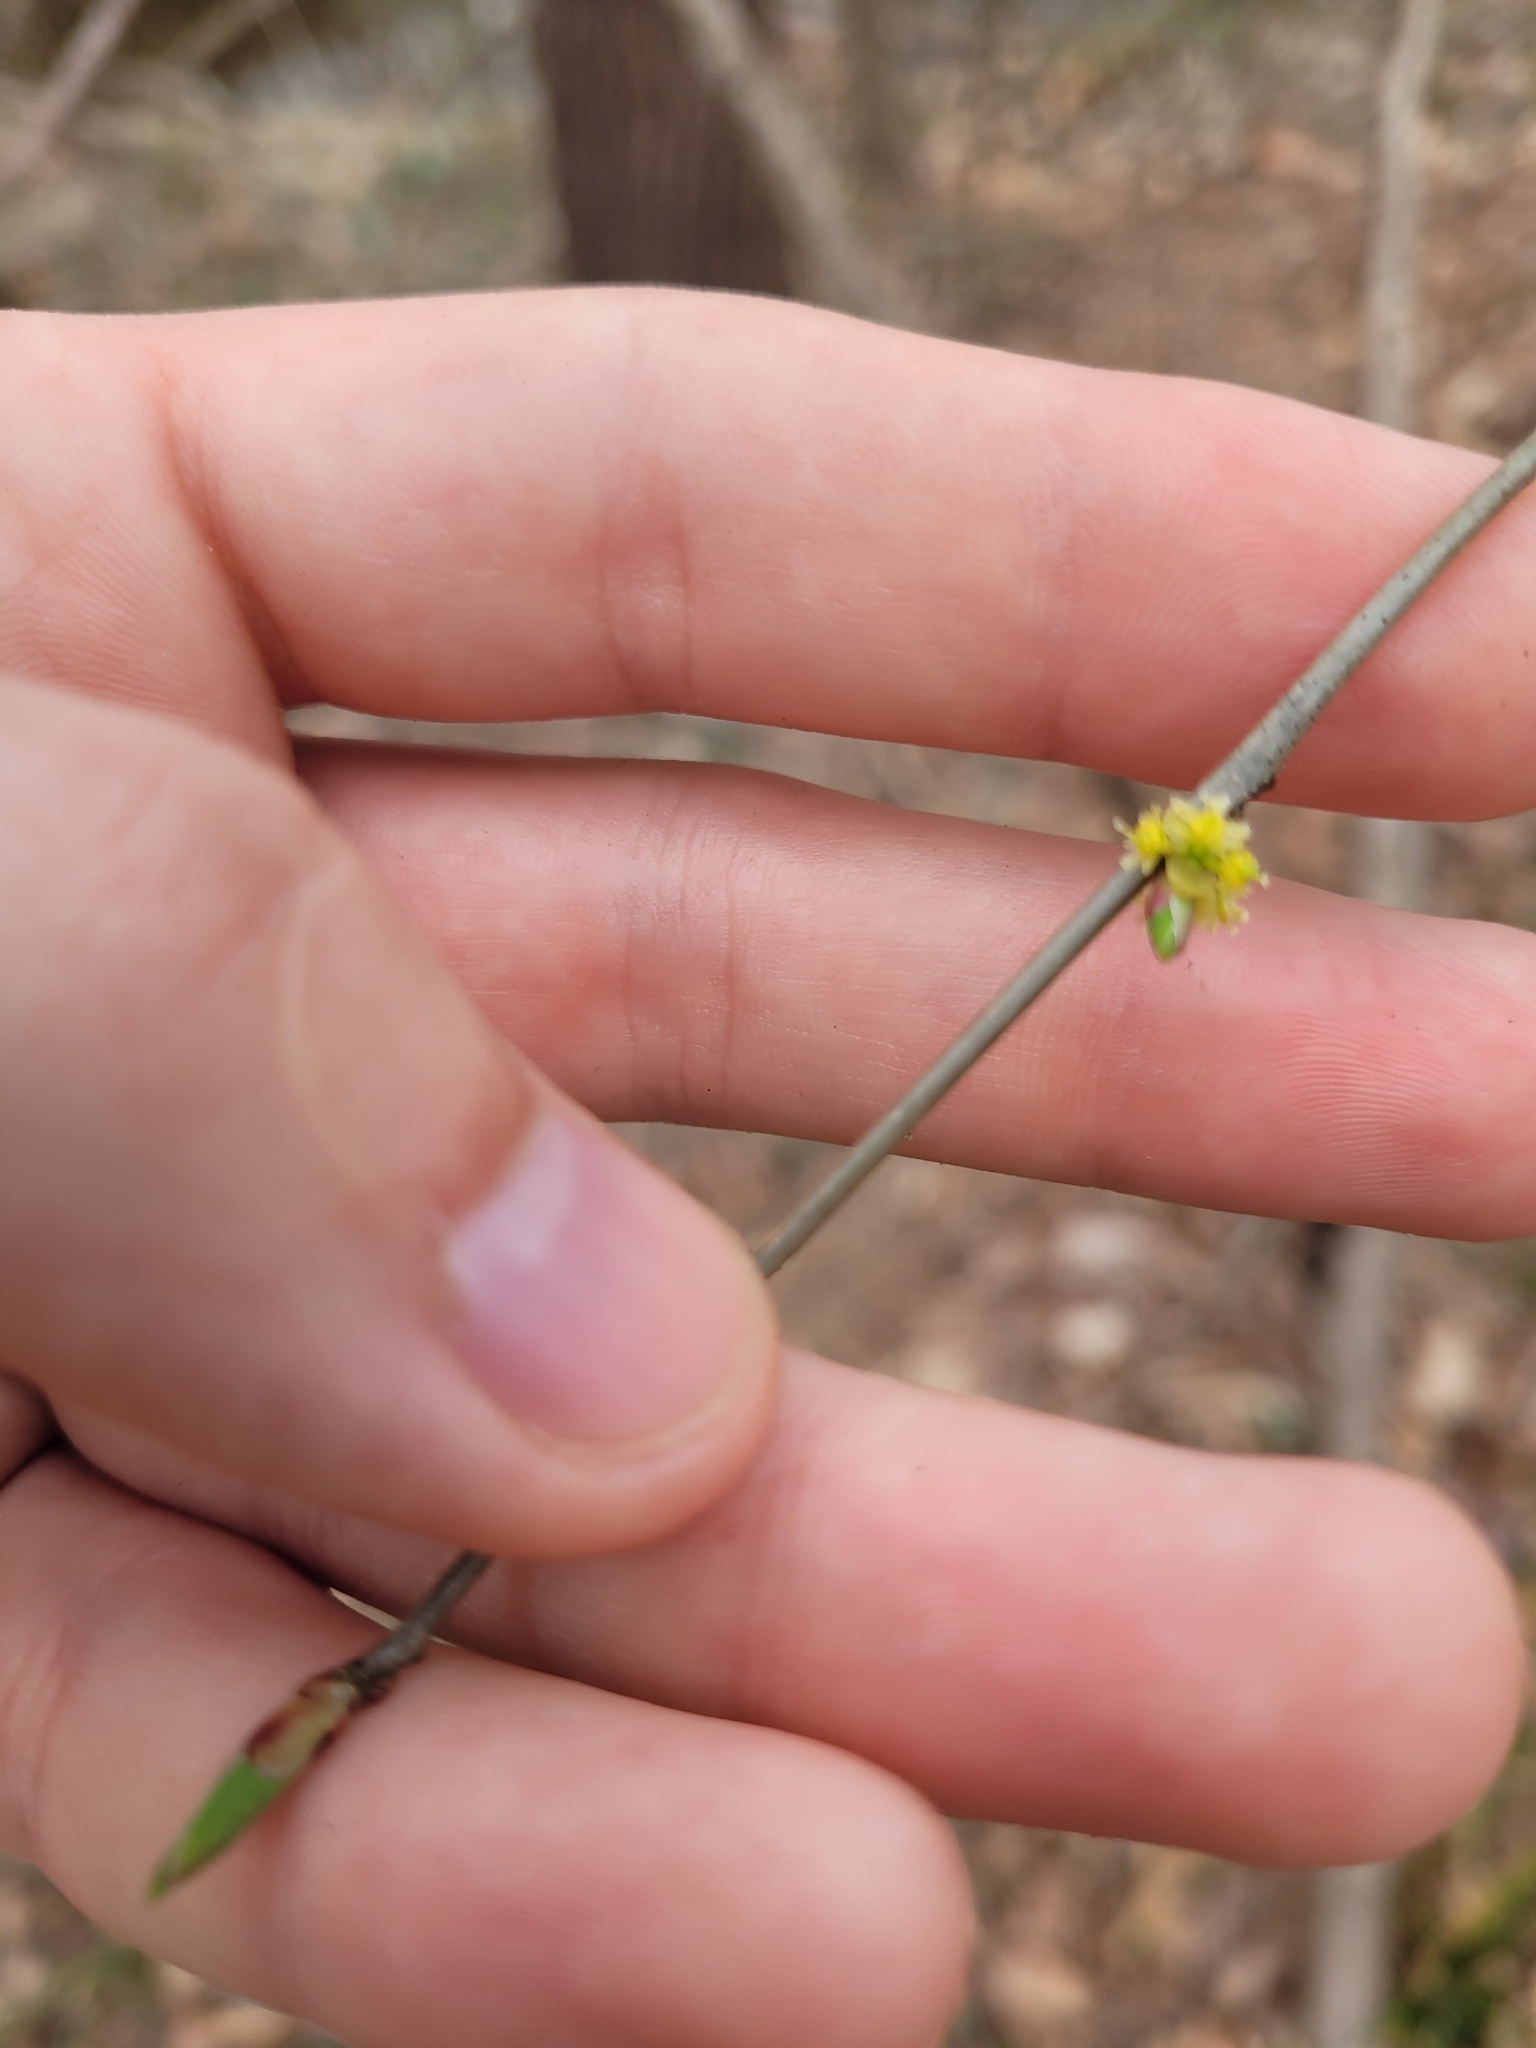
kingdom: Plantae
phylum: Tracheophyta
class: Magnoliopsida
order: Laurales
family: Lauraceae
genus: Lindera
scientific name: Lindera benzoin
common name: Spicebush
